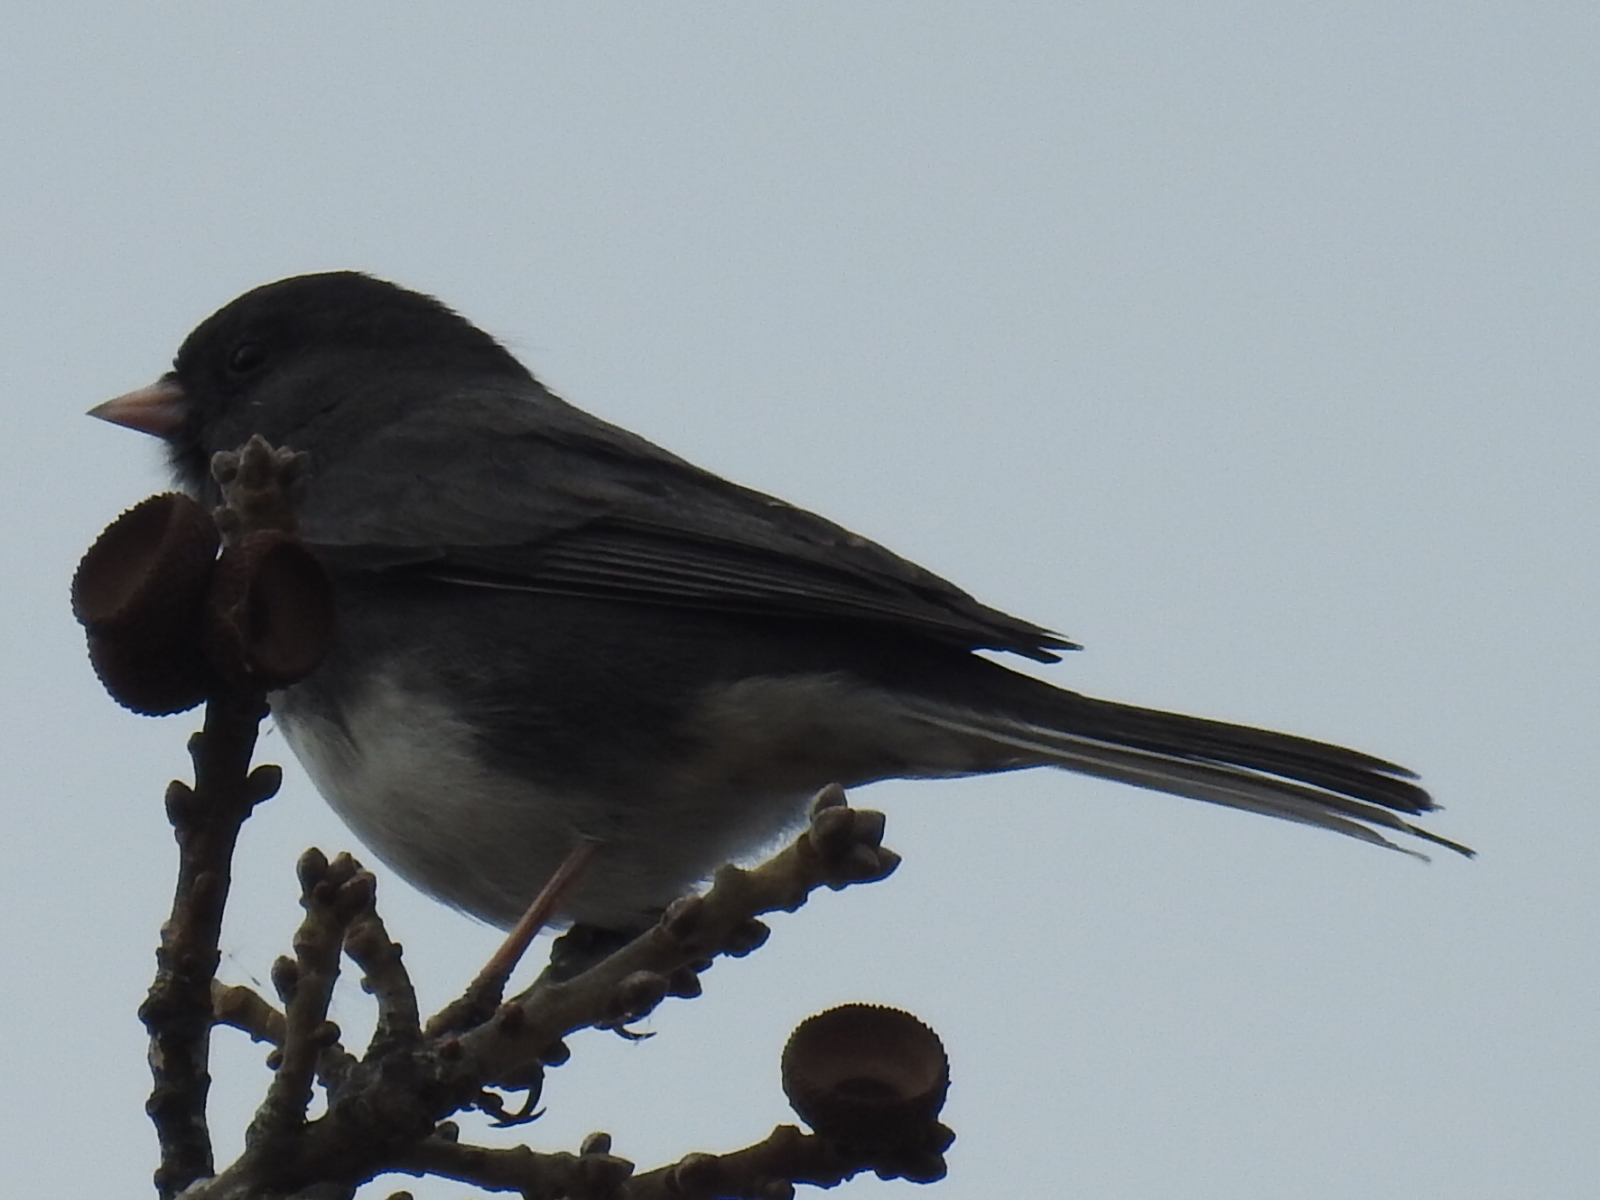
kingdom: Animalia
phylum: Chordata
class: Aves
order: Passeriformes
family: Passerellidae
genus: Junco
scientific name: Junco hyemalis
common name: Dark-eyed junco
